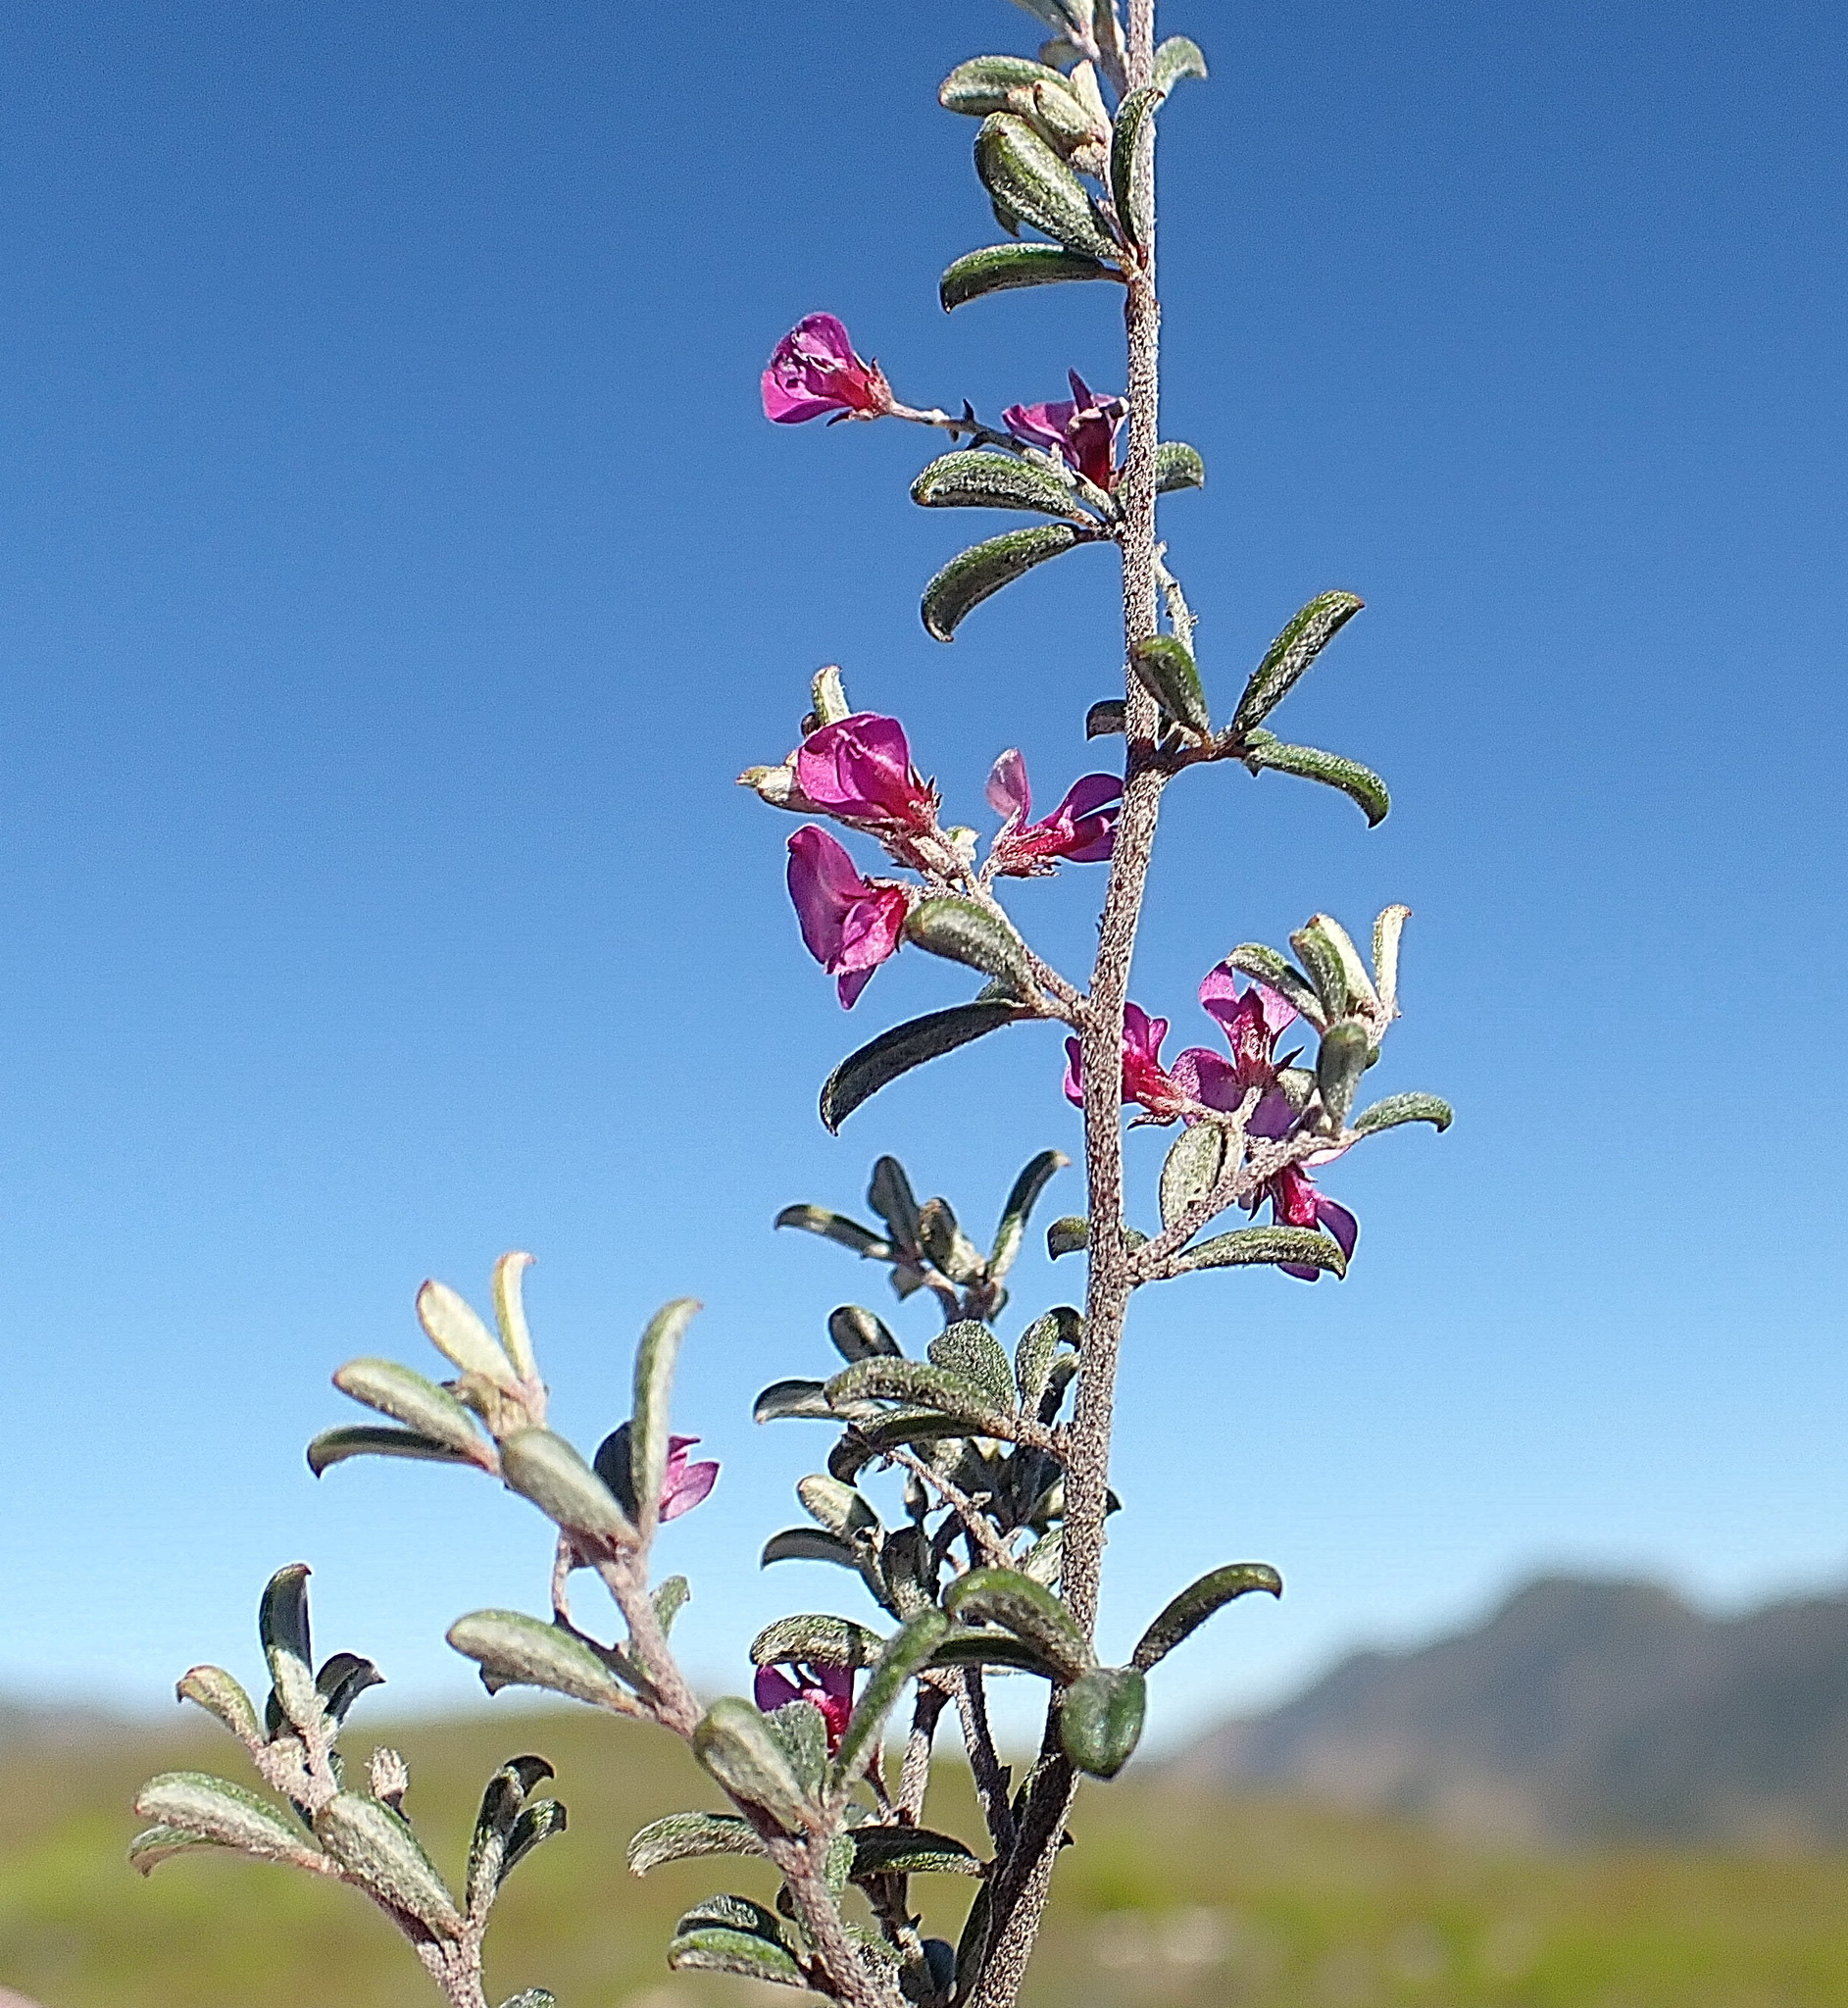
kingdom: Plantae
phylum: Tracheophyta
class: Magnoliopsida
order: Fabales
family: Fabaceae
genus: Indigofera
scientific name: Indigofera
